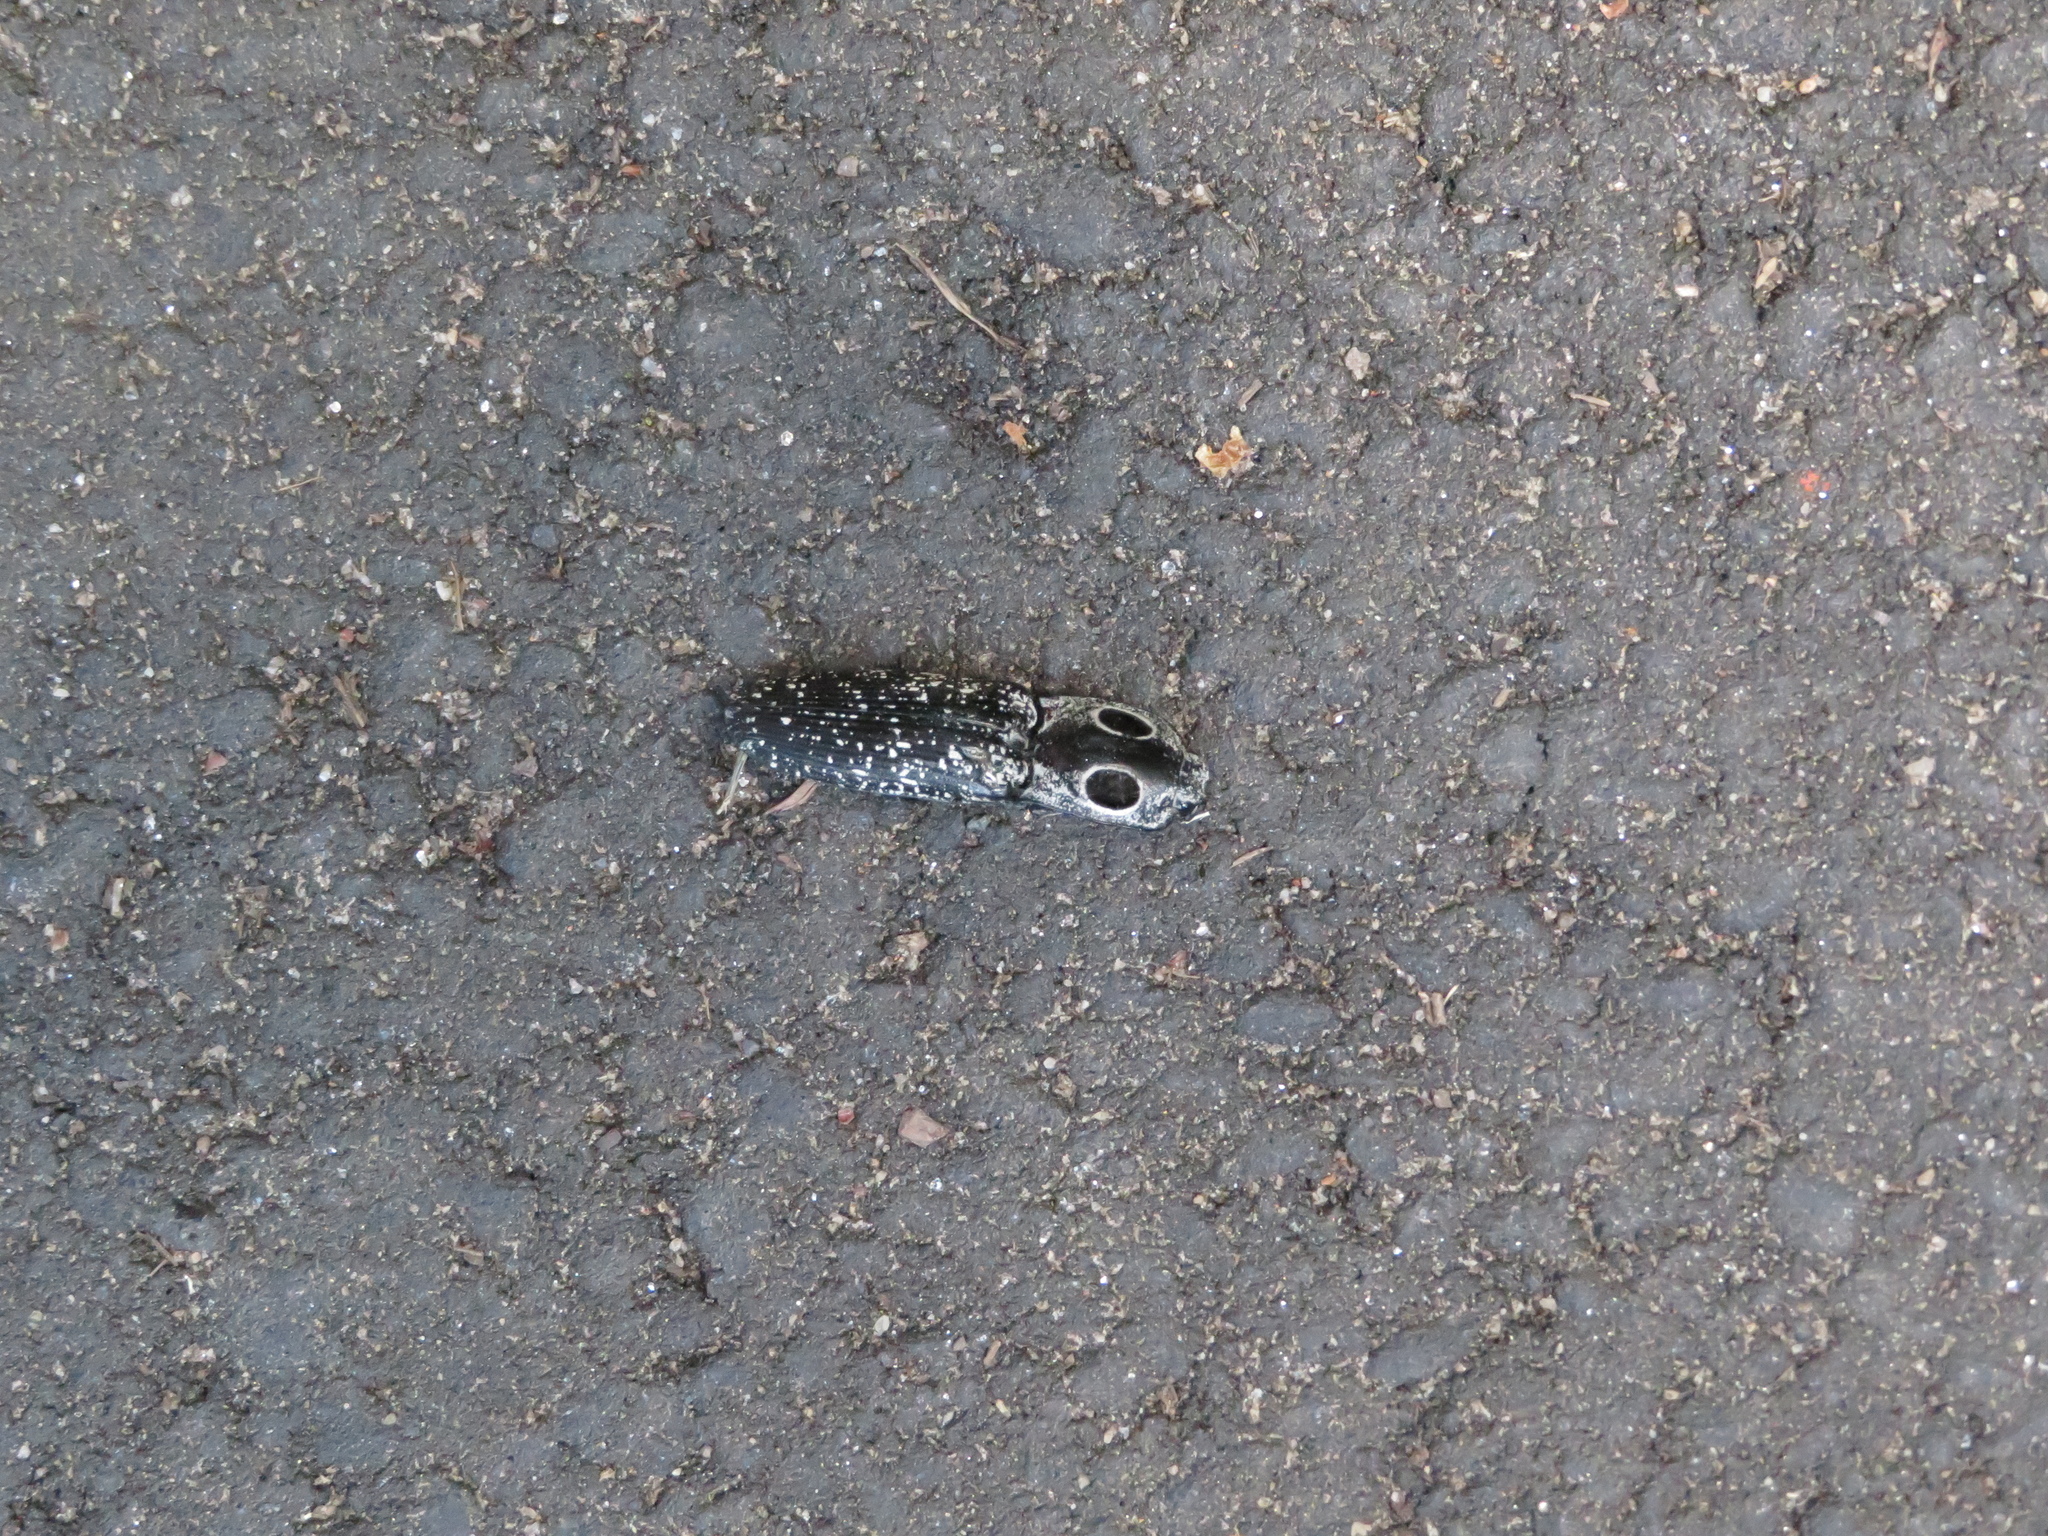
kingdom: Animalia
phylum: Arthropoda
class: Insecta
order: Coleoptera
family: Elateridae
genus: Alaus
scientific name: Alaus oculatus
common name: Eastern eyed click beetle
